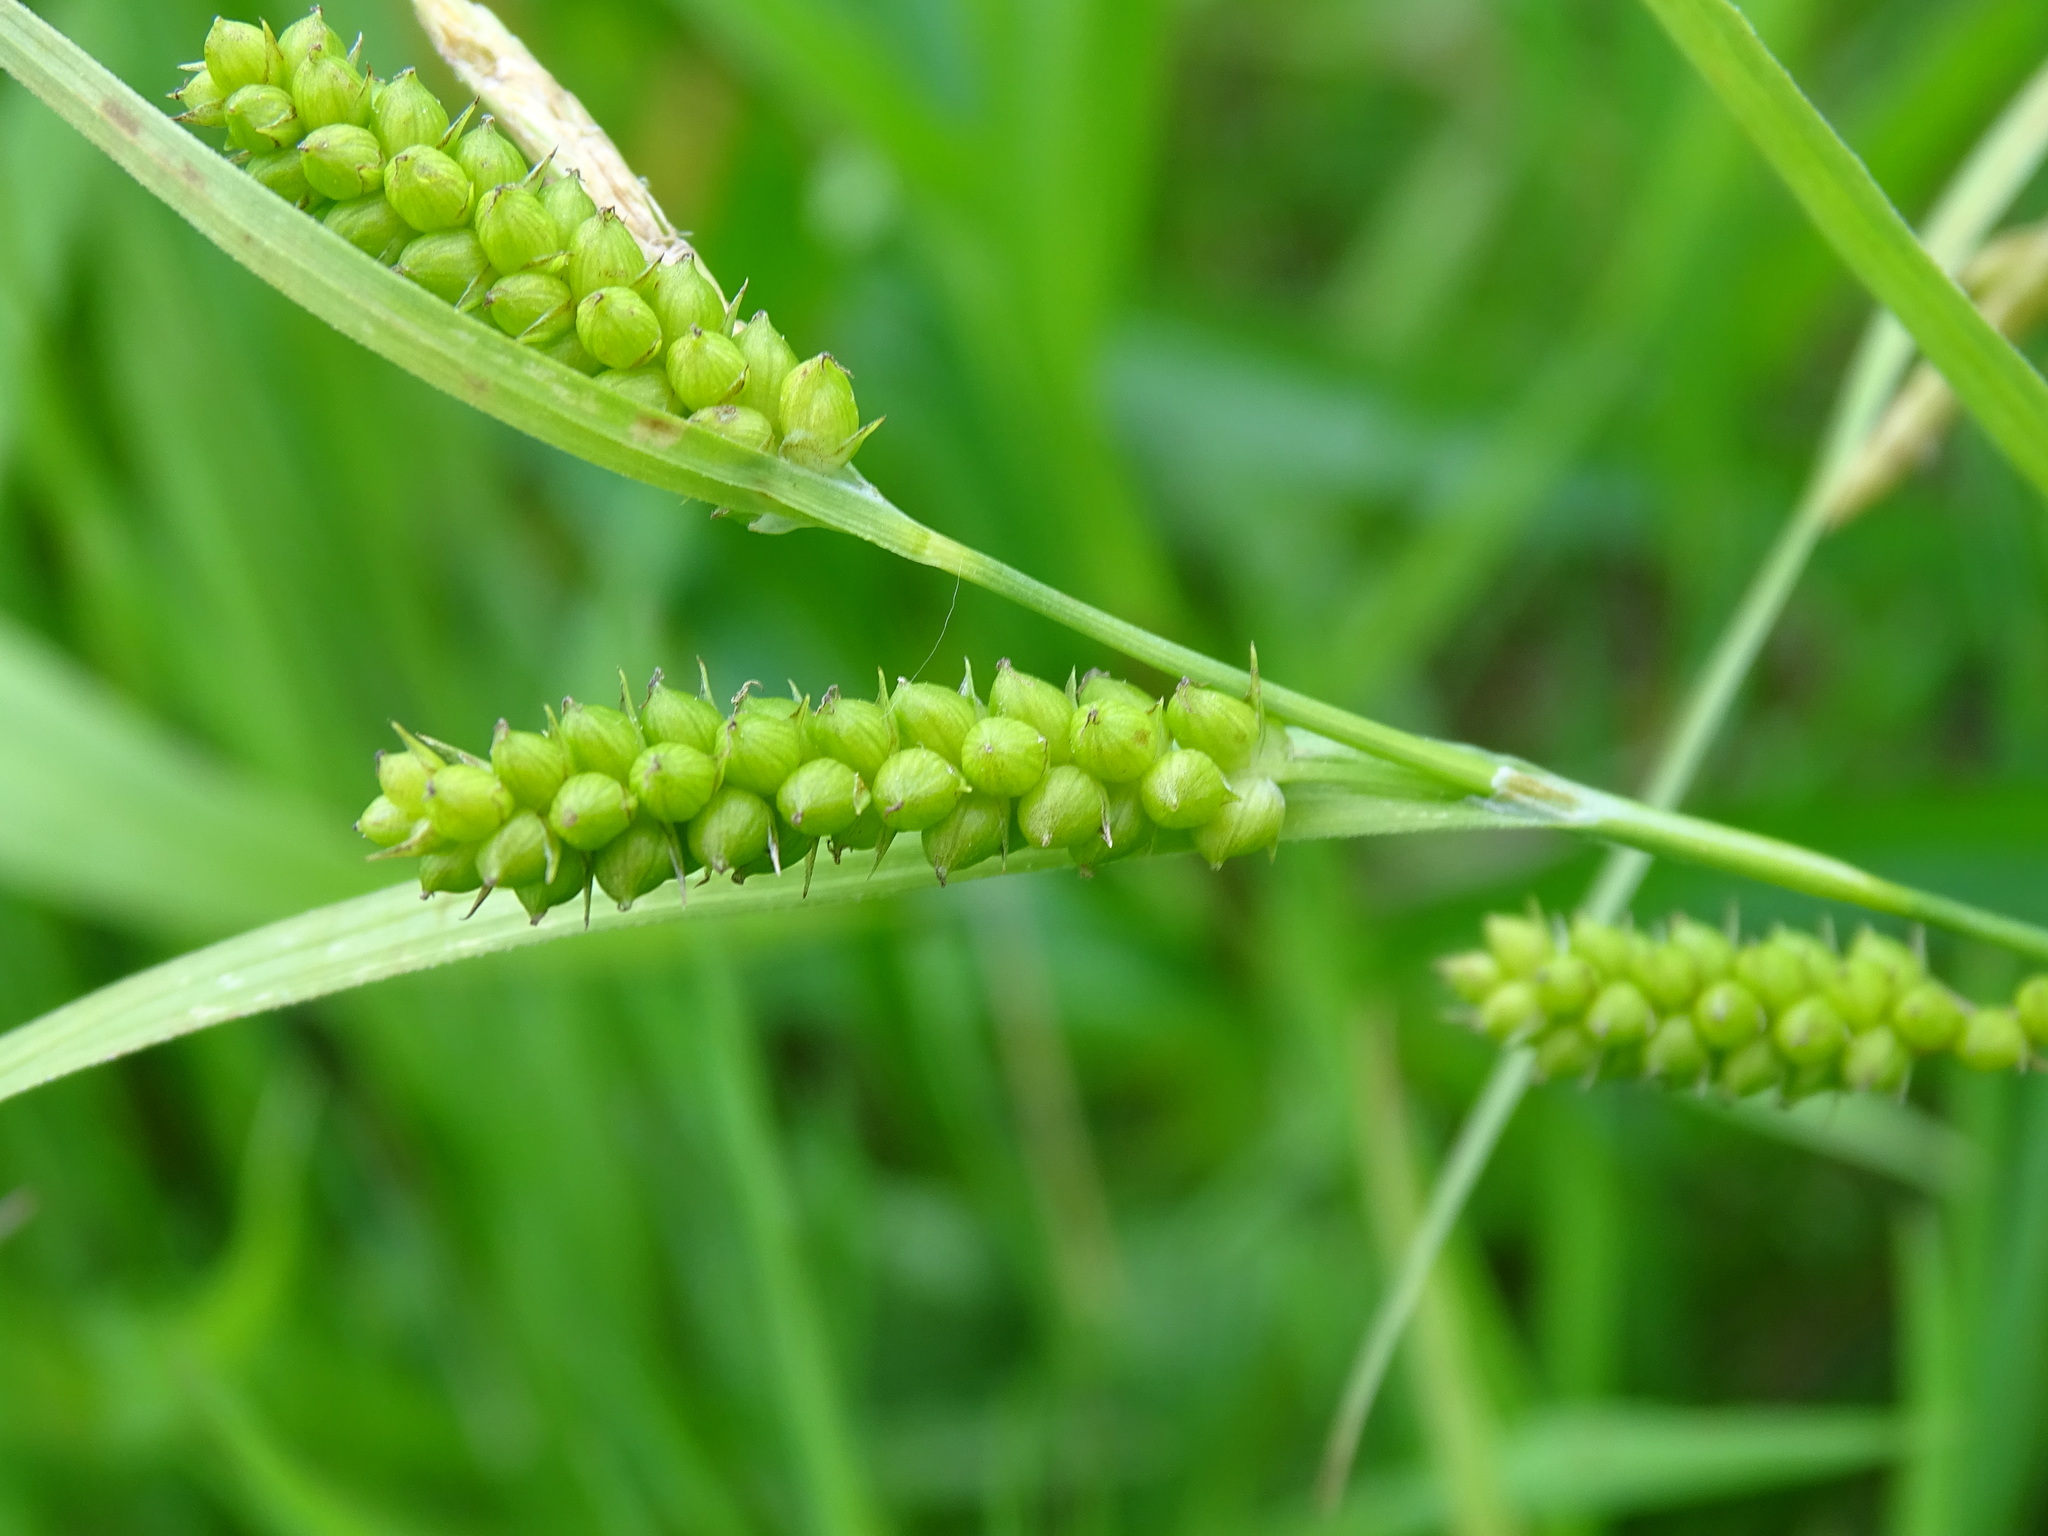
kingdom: Plantae
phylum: Tracheophyta
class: Liliopsida
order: Poales
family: Cyperaceae
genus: Carex
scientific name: Carex granularis
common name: Granular sedge
